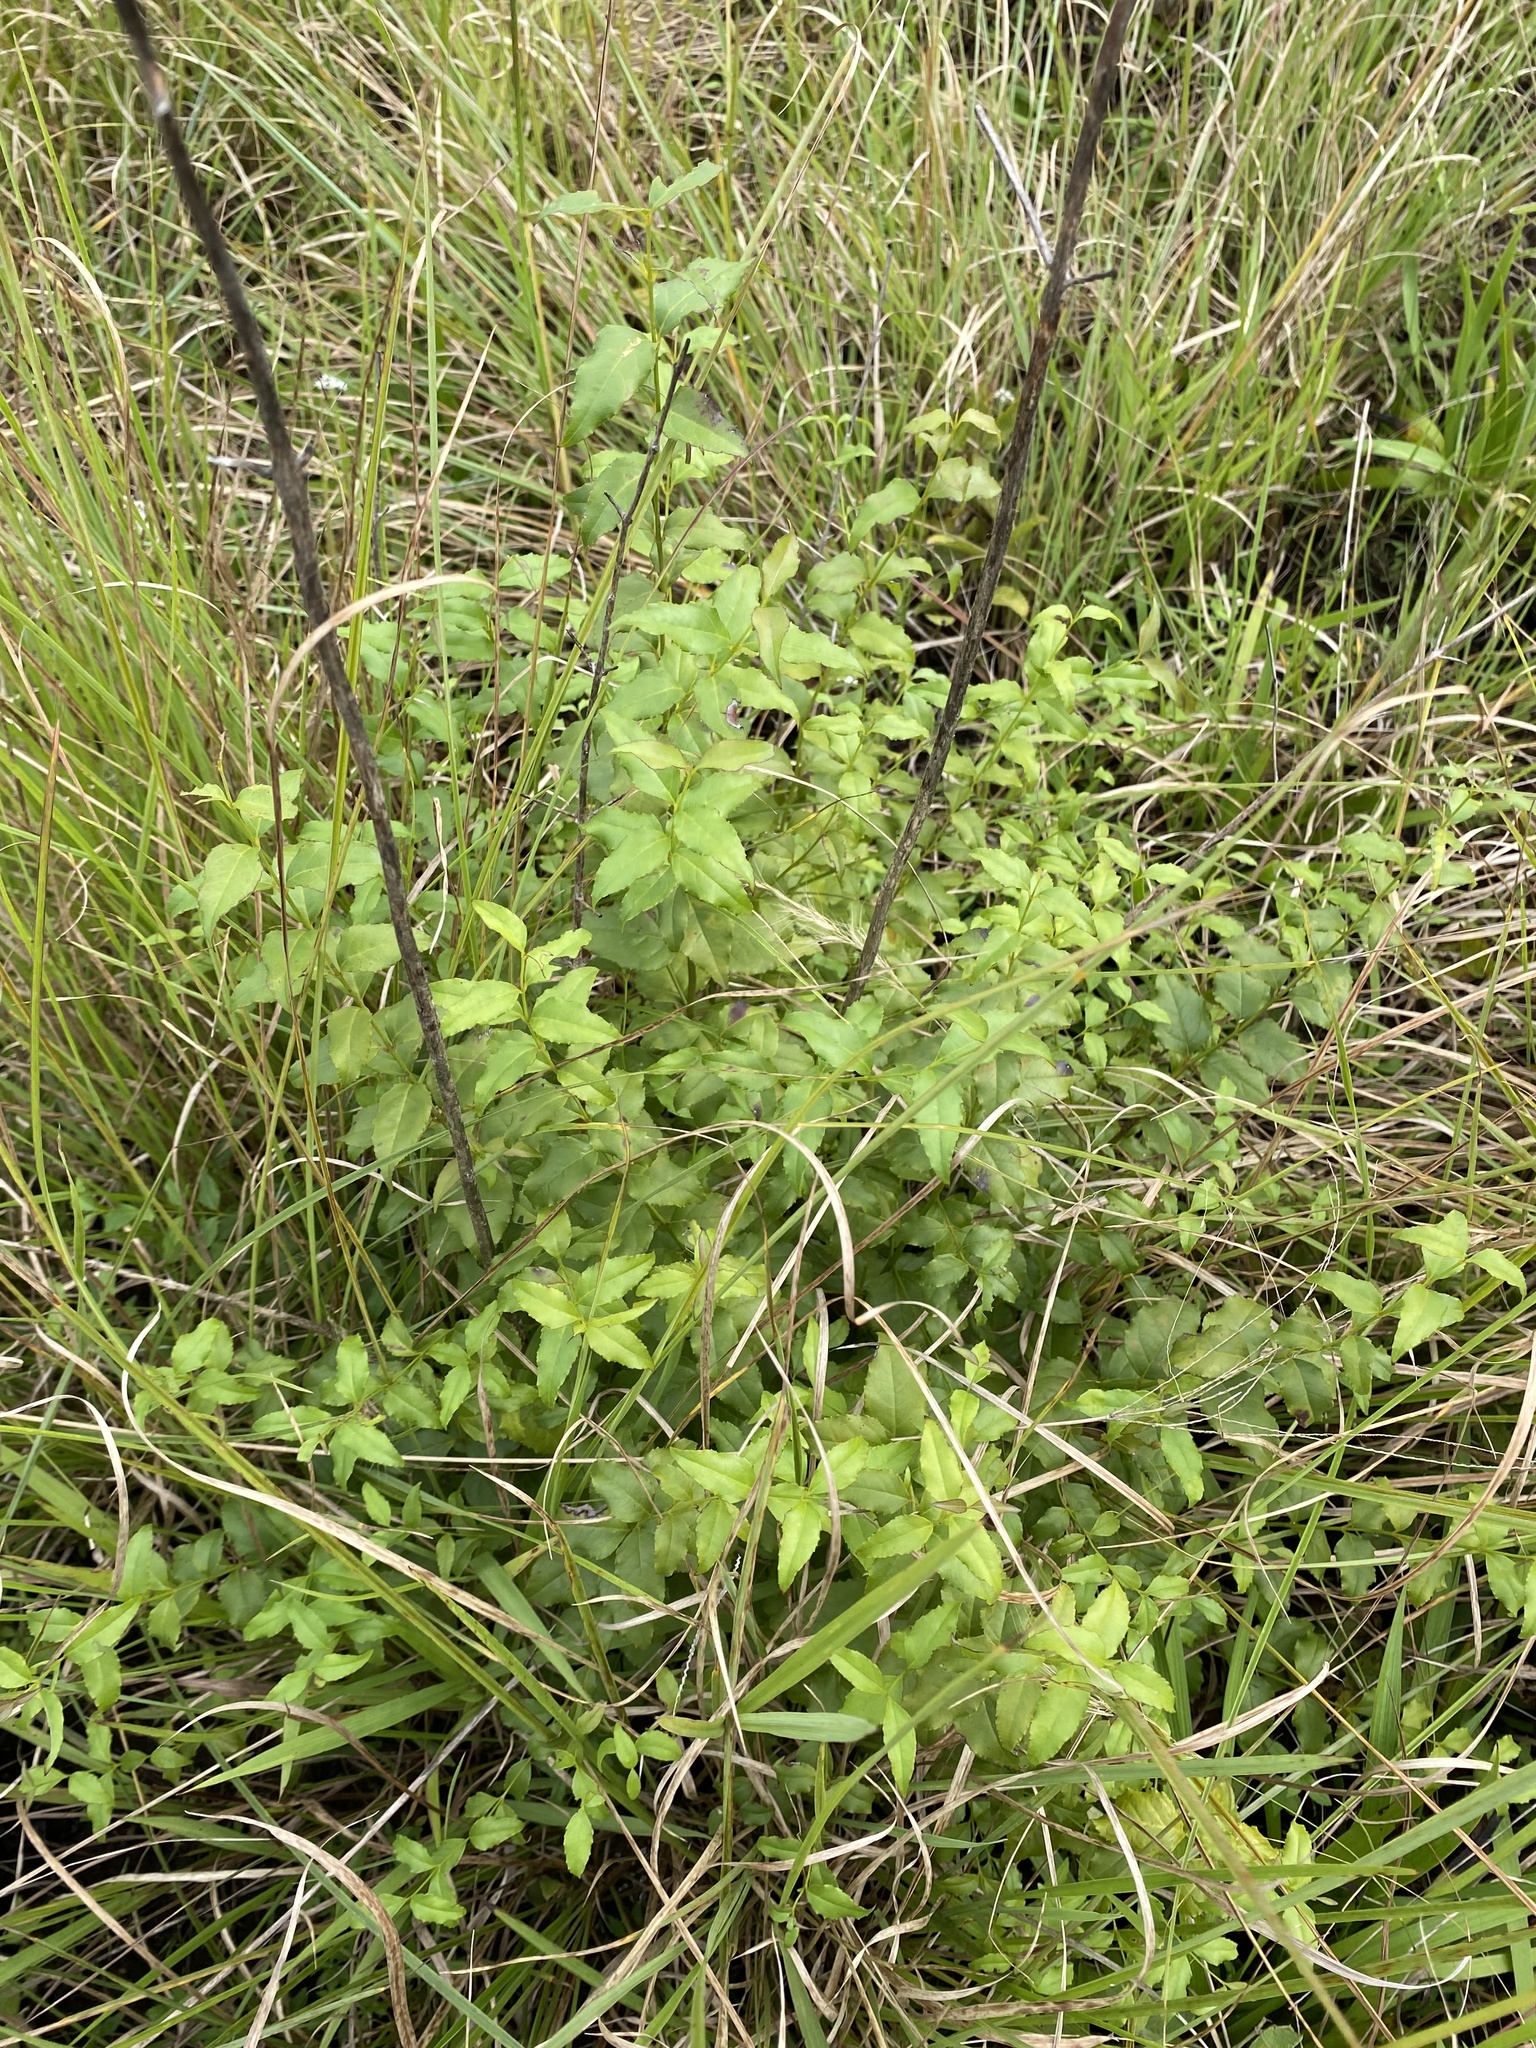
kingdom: Plantae
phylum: Tracheophyta
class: Magnoliopsida
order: Lamiales
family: Stilbaceae
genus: Halleria
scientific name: Halleria lucida
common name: Tree fuschia
